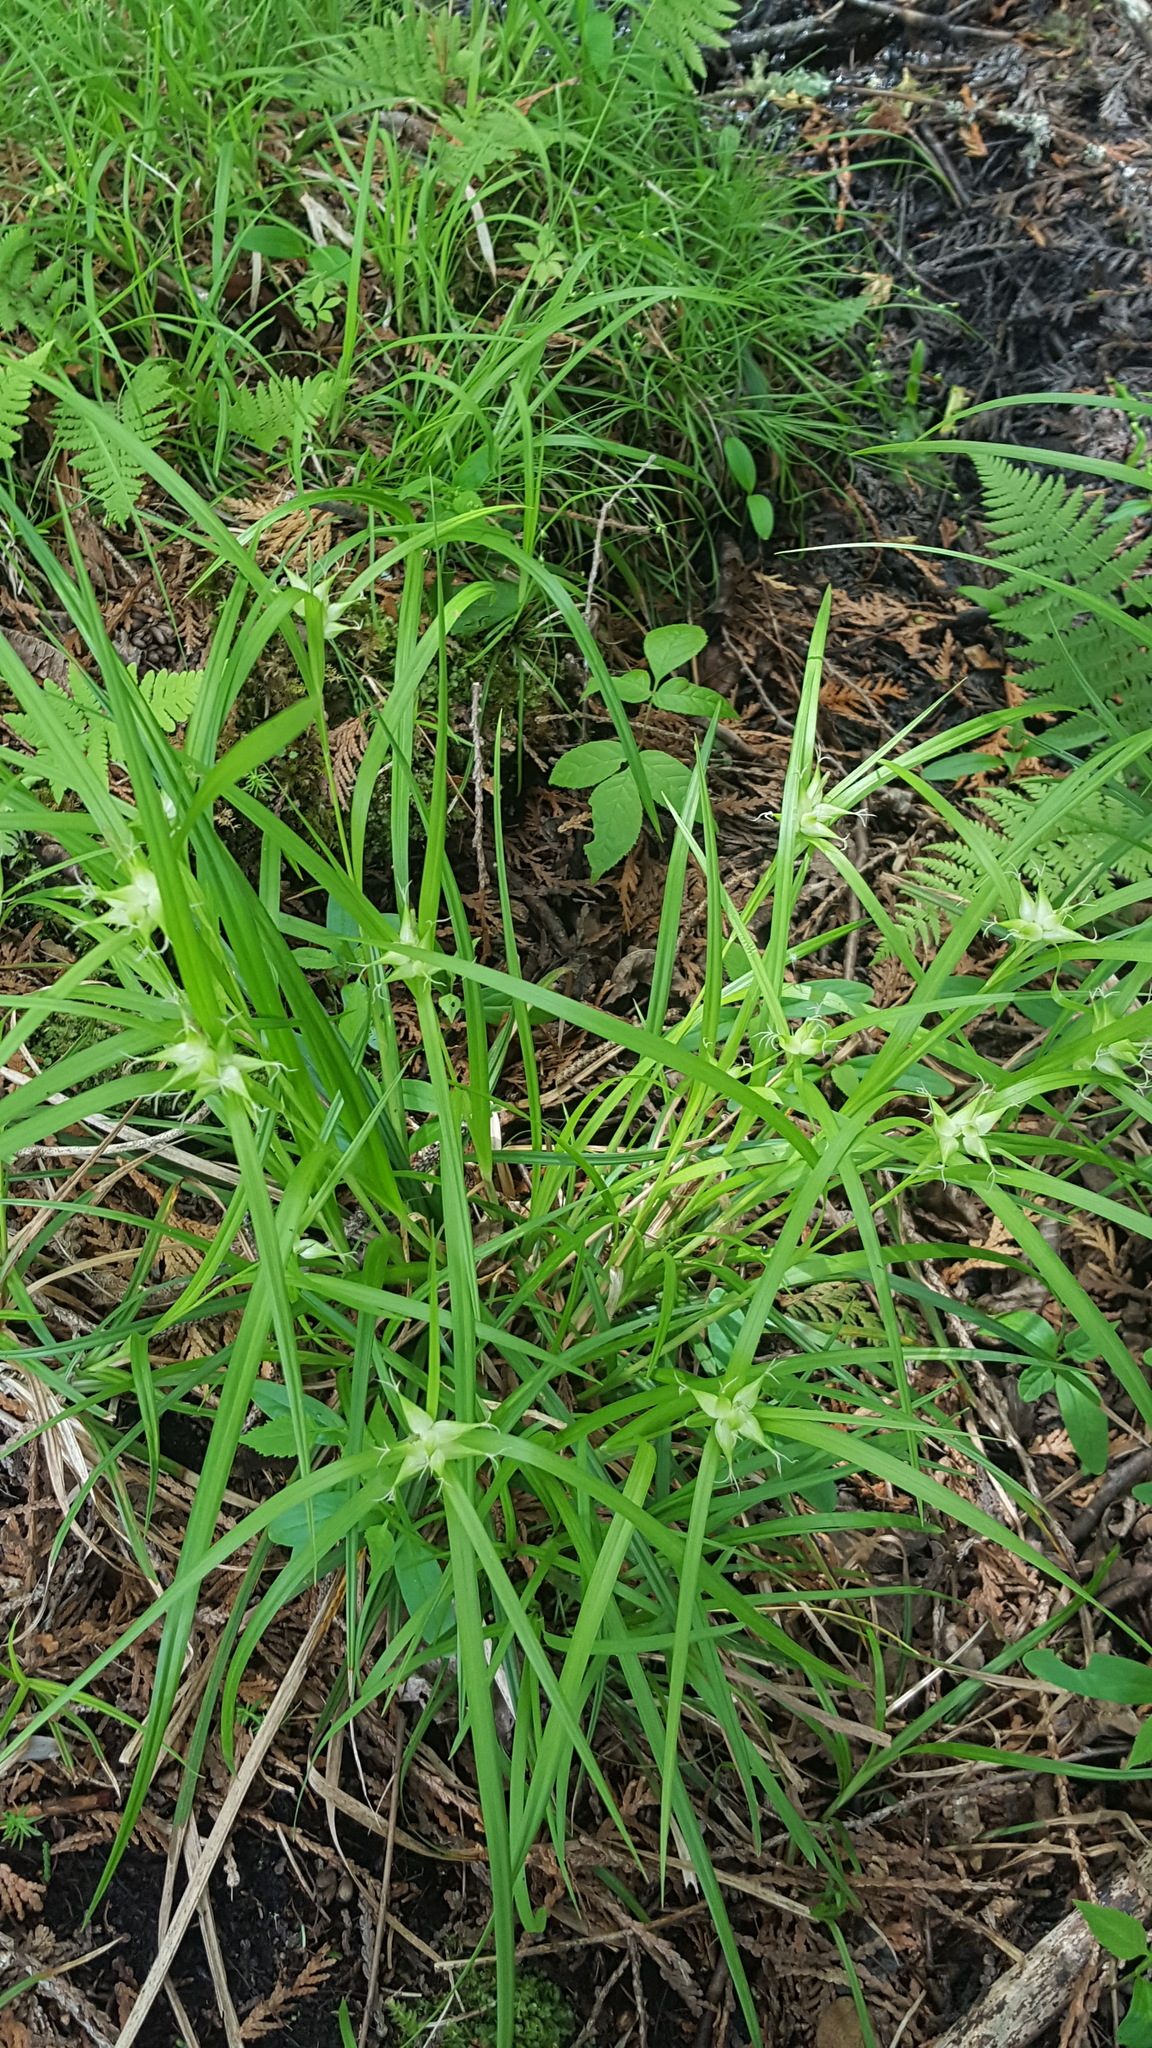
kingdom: Plantae
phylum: Tracheophyta
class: Liliopsida
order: Poales
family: Cyperaceae
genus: Carex
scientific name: Carex intumescens
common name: Greater bladder sedge
